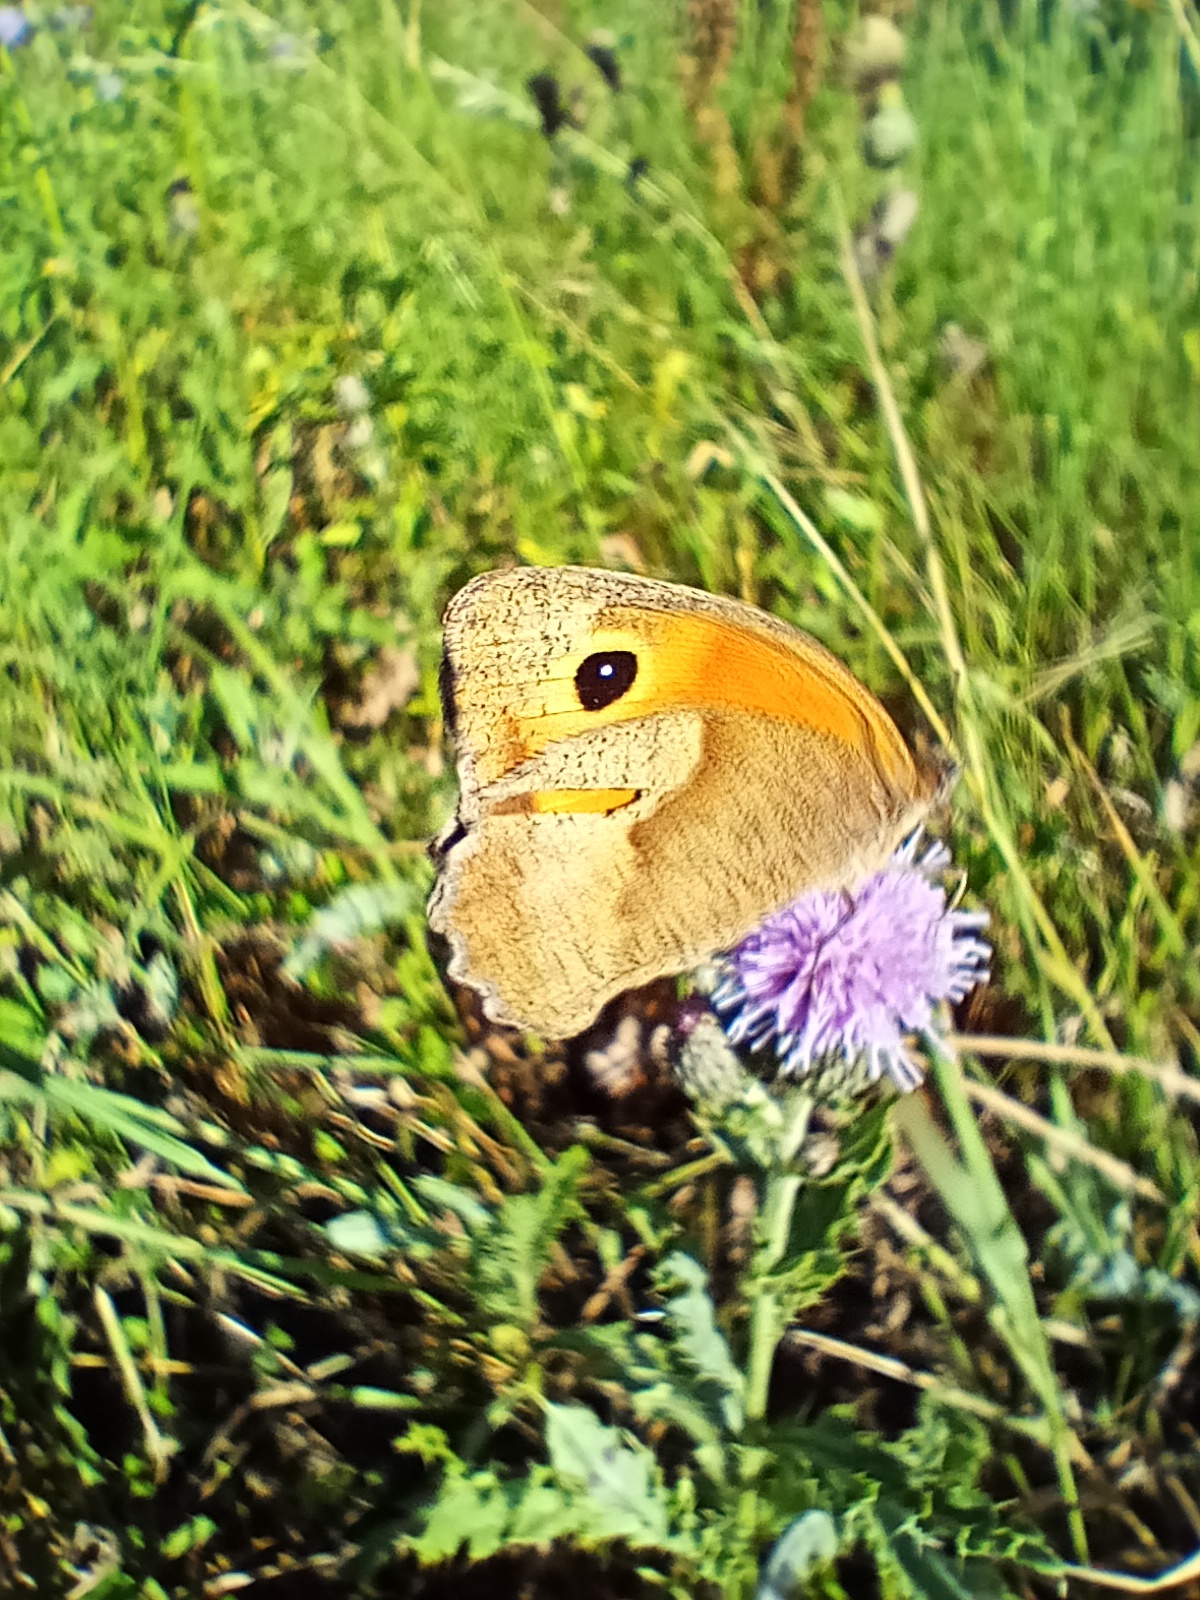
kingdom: Animalia
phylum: Arthropoda
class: Insecta
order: Lepidoptera
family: Nymphalidae
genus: Maniola
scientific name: Maniola jurtina
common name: Meadow brown
